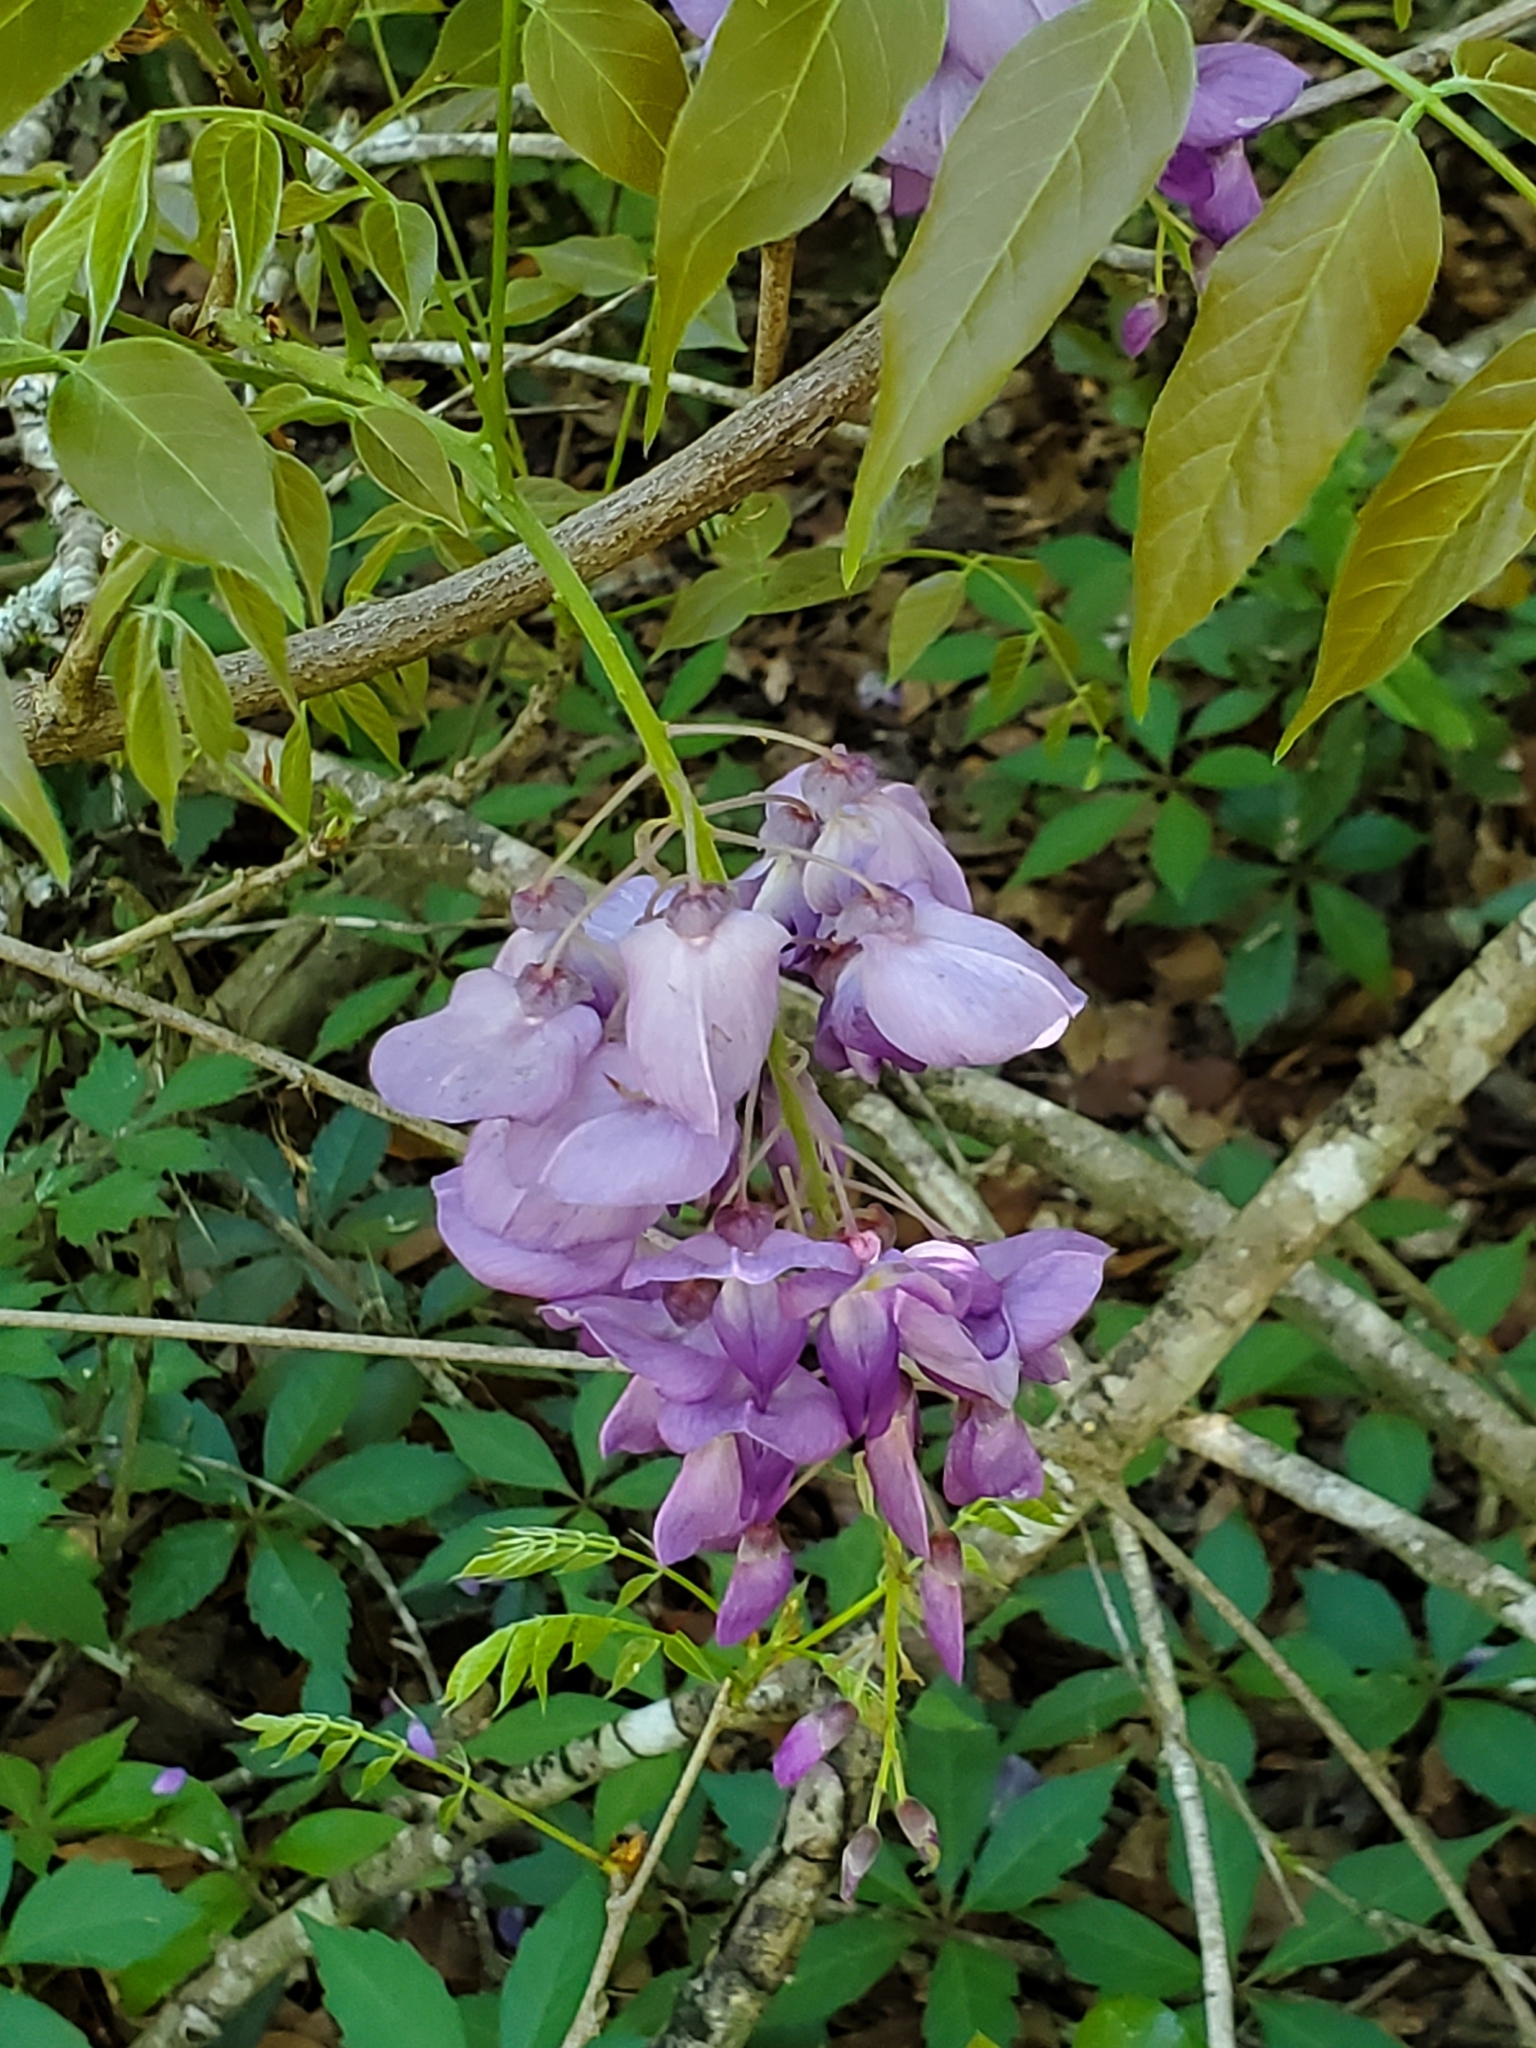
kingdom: Plantae
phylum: Tracheophyta
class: Magnoliopsida
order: Fabales
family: Fabaceae
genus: Wisteria
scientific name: Wisteria sinensis
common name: Chinese wisteria
